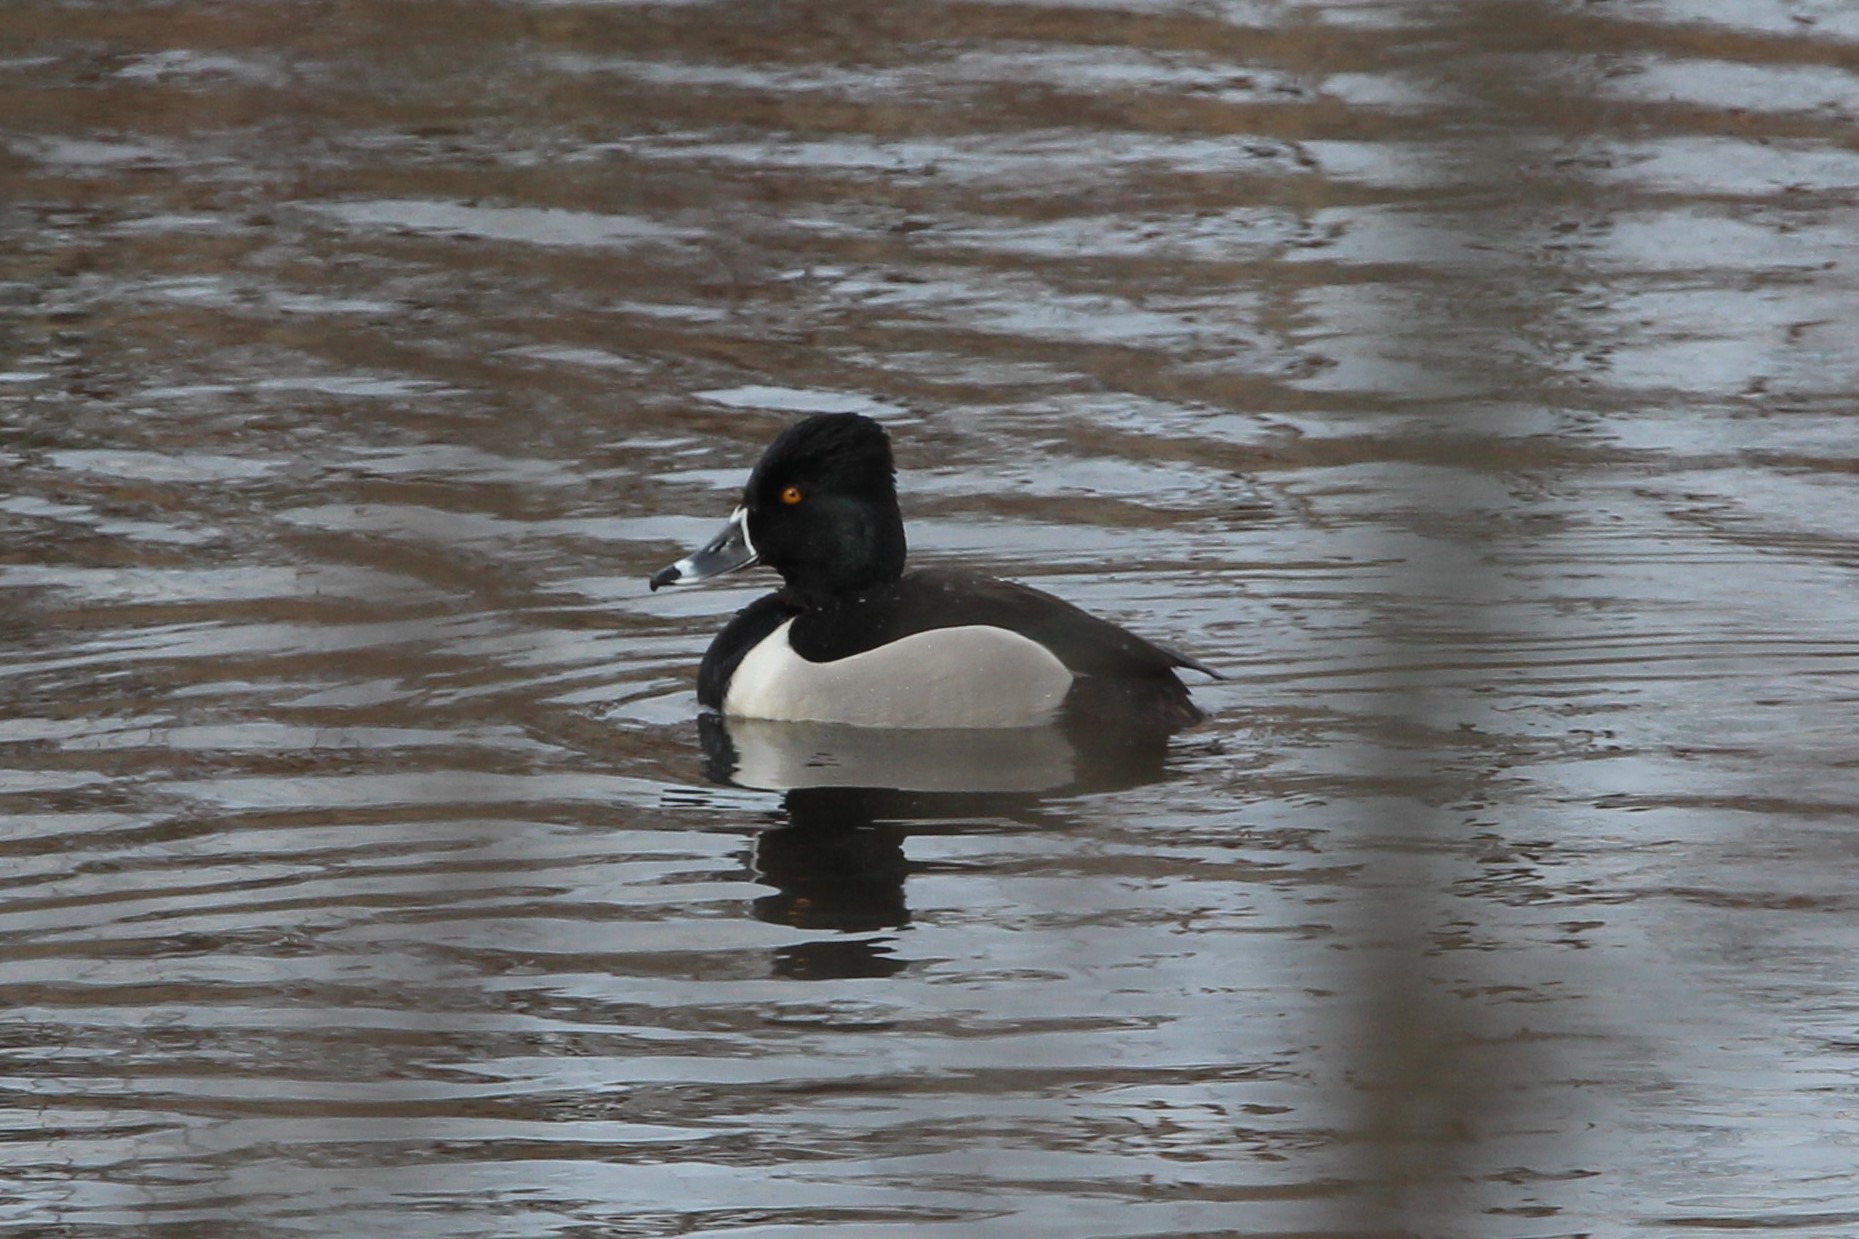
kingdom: Animalia
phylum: Chordata
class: Aves
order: Anseriformes
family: Anatidae
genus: Aythya
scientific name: Aythya collaris
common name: Ring-necked duck
